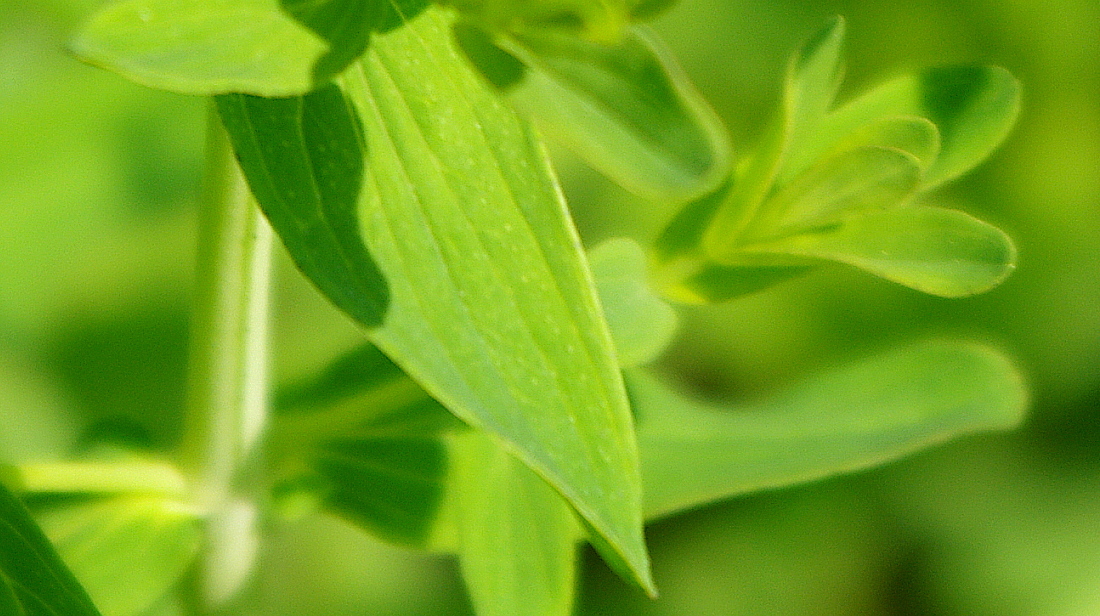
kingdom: Plantae
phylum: Tracheophyta
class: Magnoliopsida
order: Malpighiales
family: Hypericaceae
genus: Hypericum
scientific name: Hypericum perforatum
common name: Common st. johnswort
